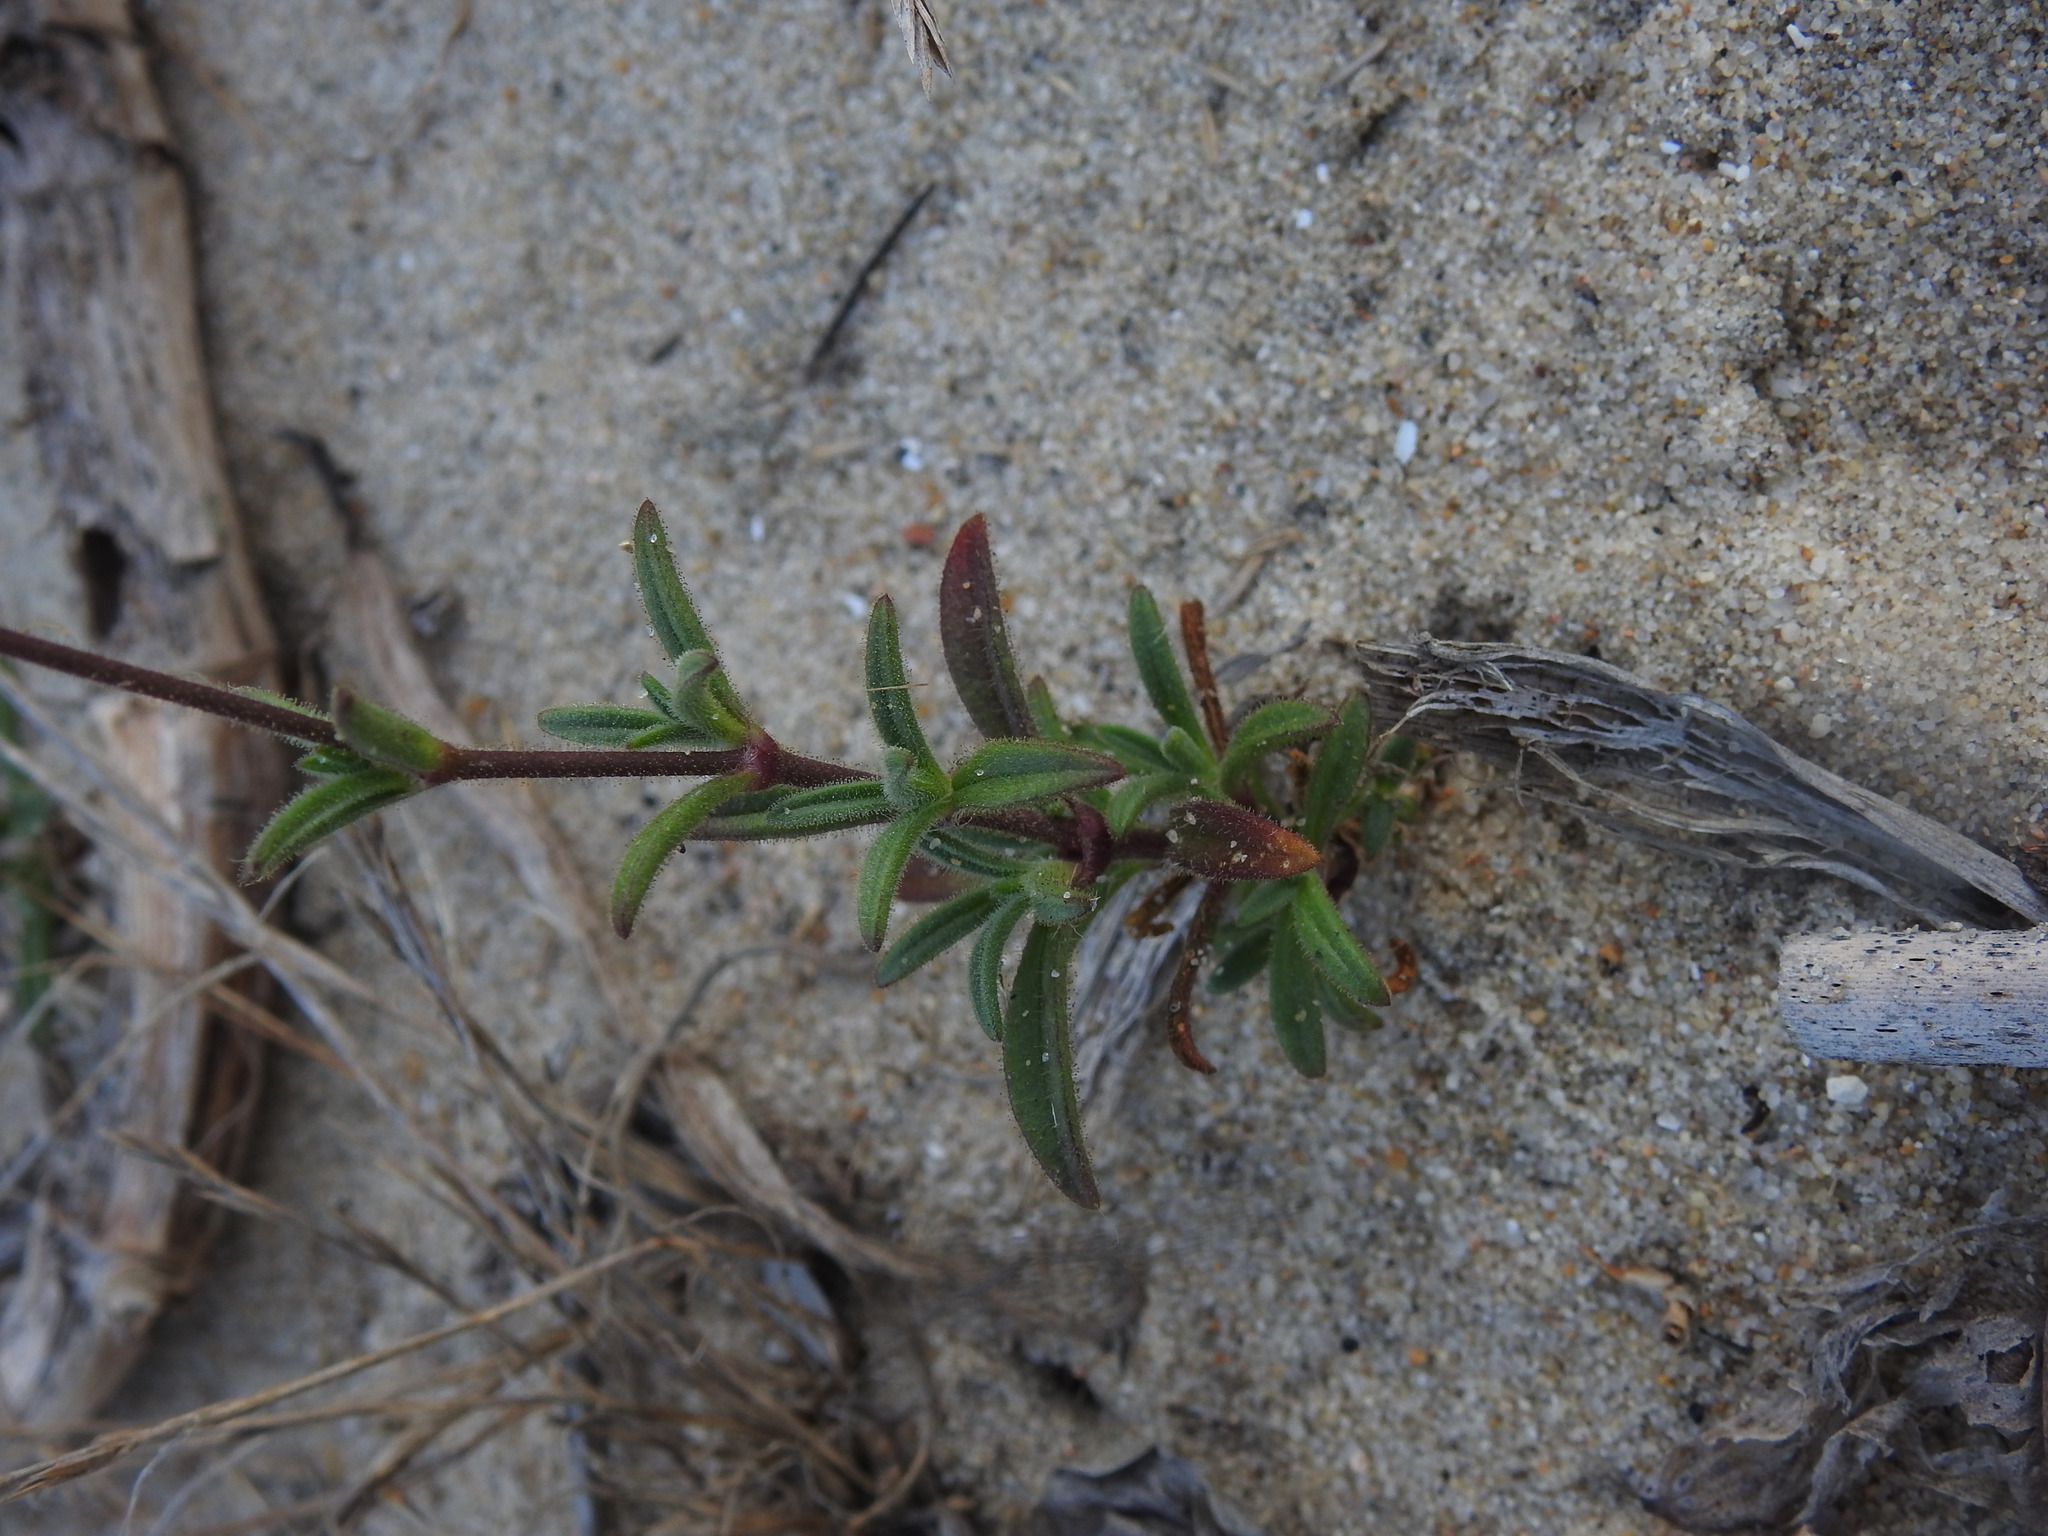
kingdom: Plantae
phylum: Tracheophyta
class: Magnoliopsida
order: Caryophyllales
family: Caryophyllaceae
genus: Silene
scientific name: Silene nicaeensis
